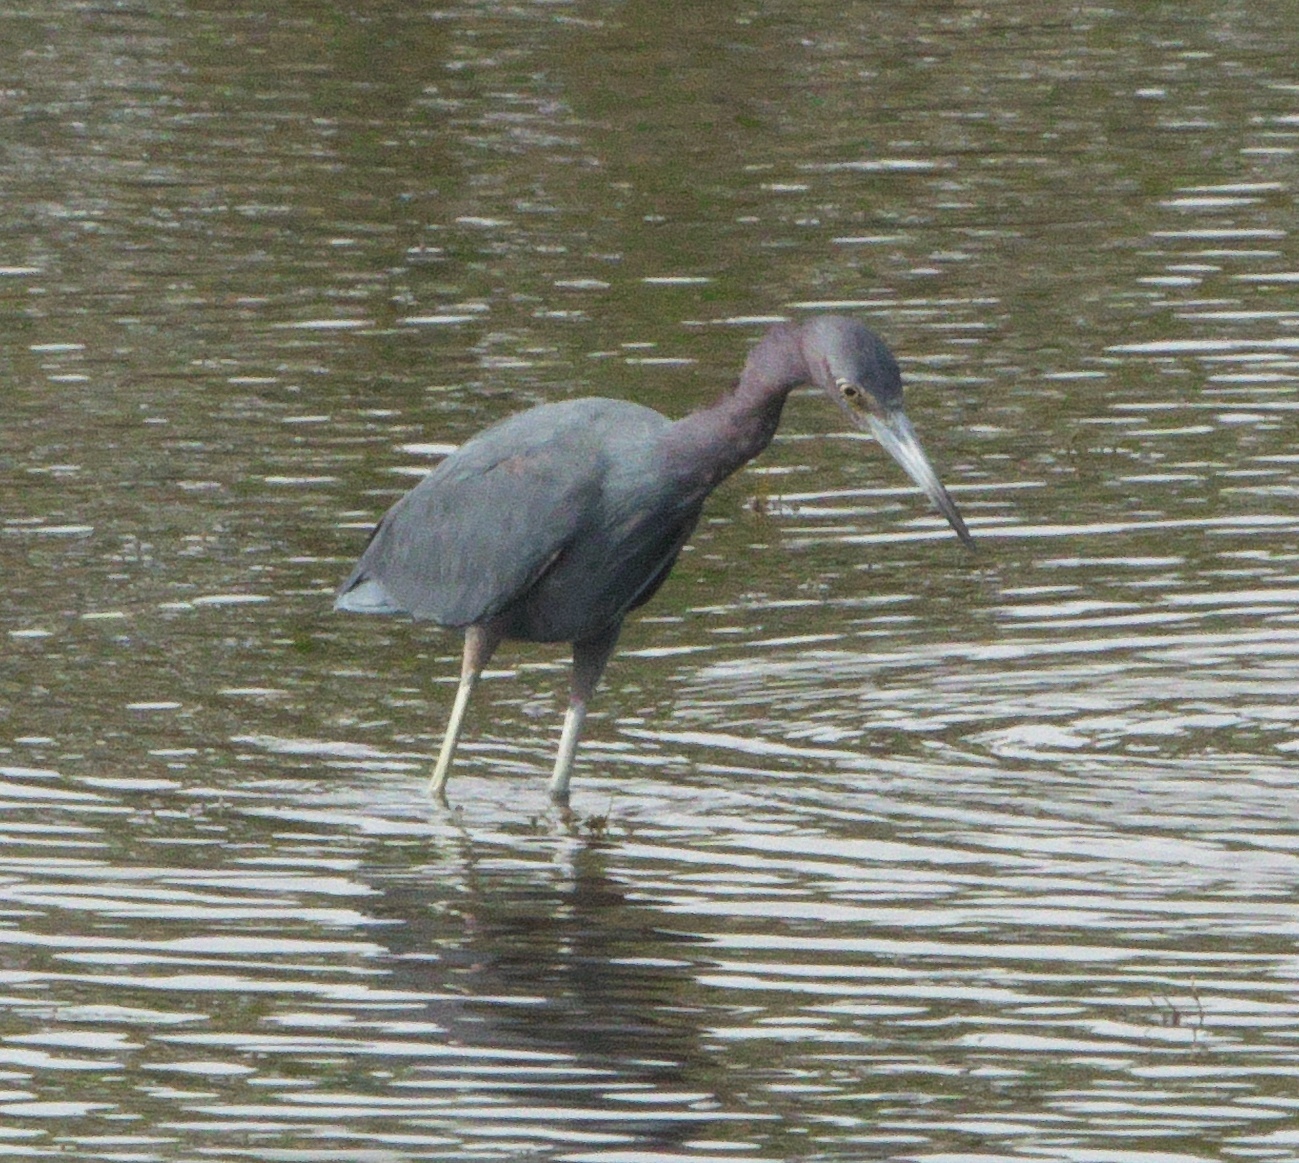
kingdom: Animalia
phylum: Chordata
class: Aves
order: Pelecaniformes
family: Ardeidae
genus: Egretta
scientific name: Egretta caerulea
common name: Little blue heron
